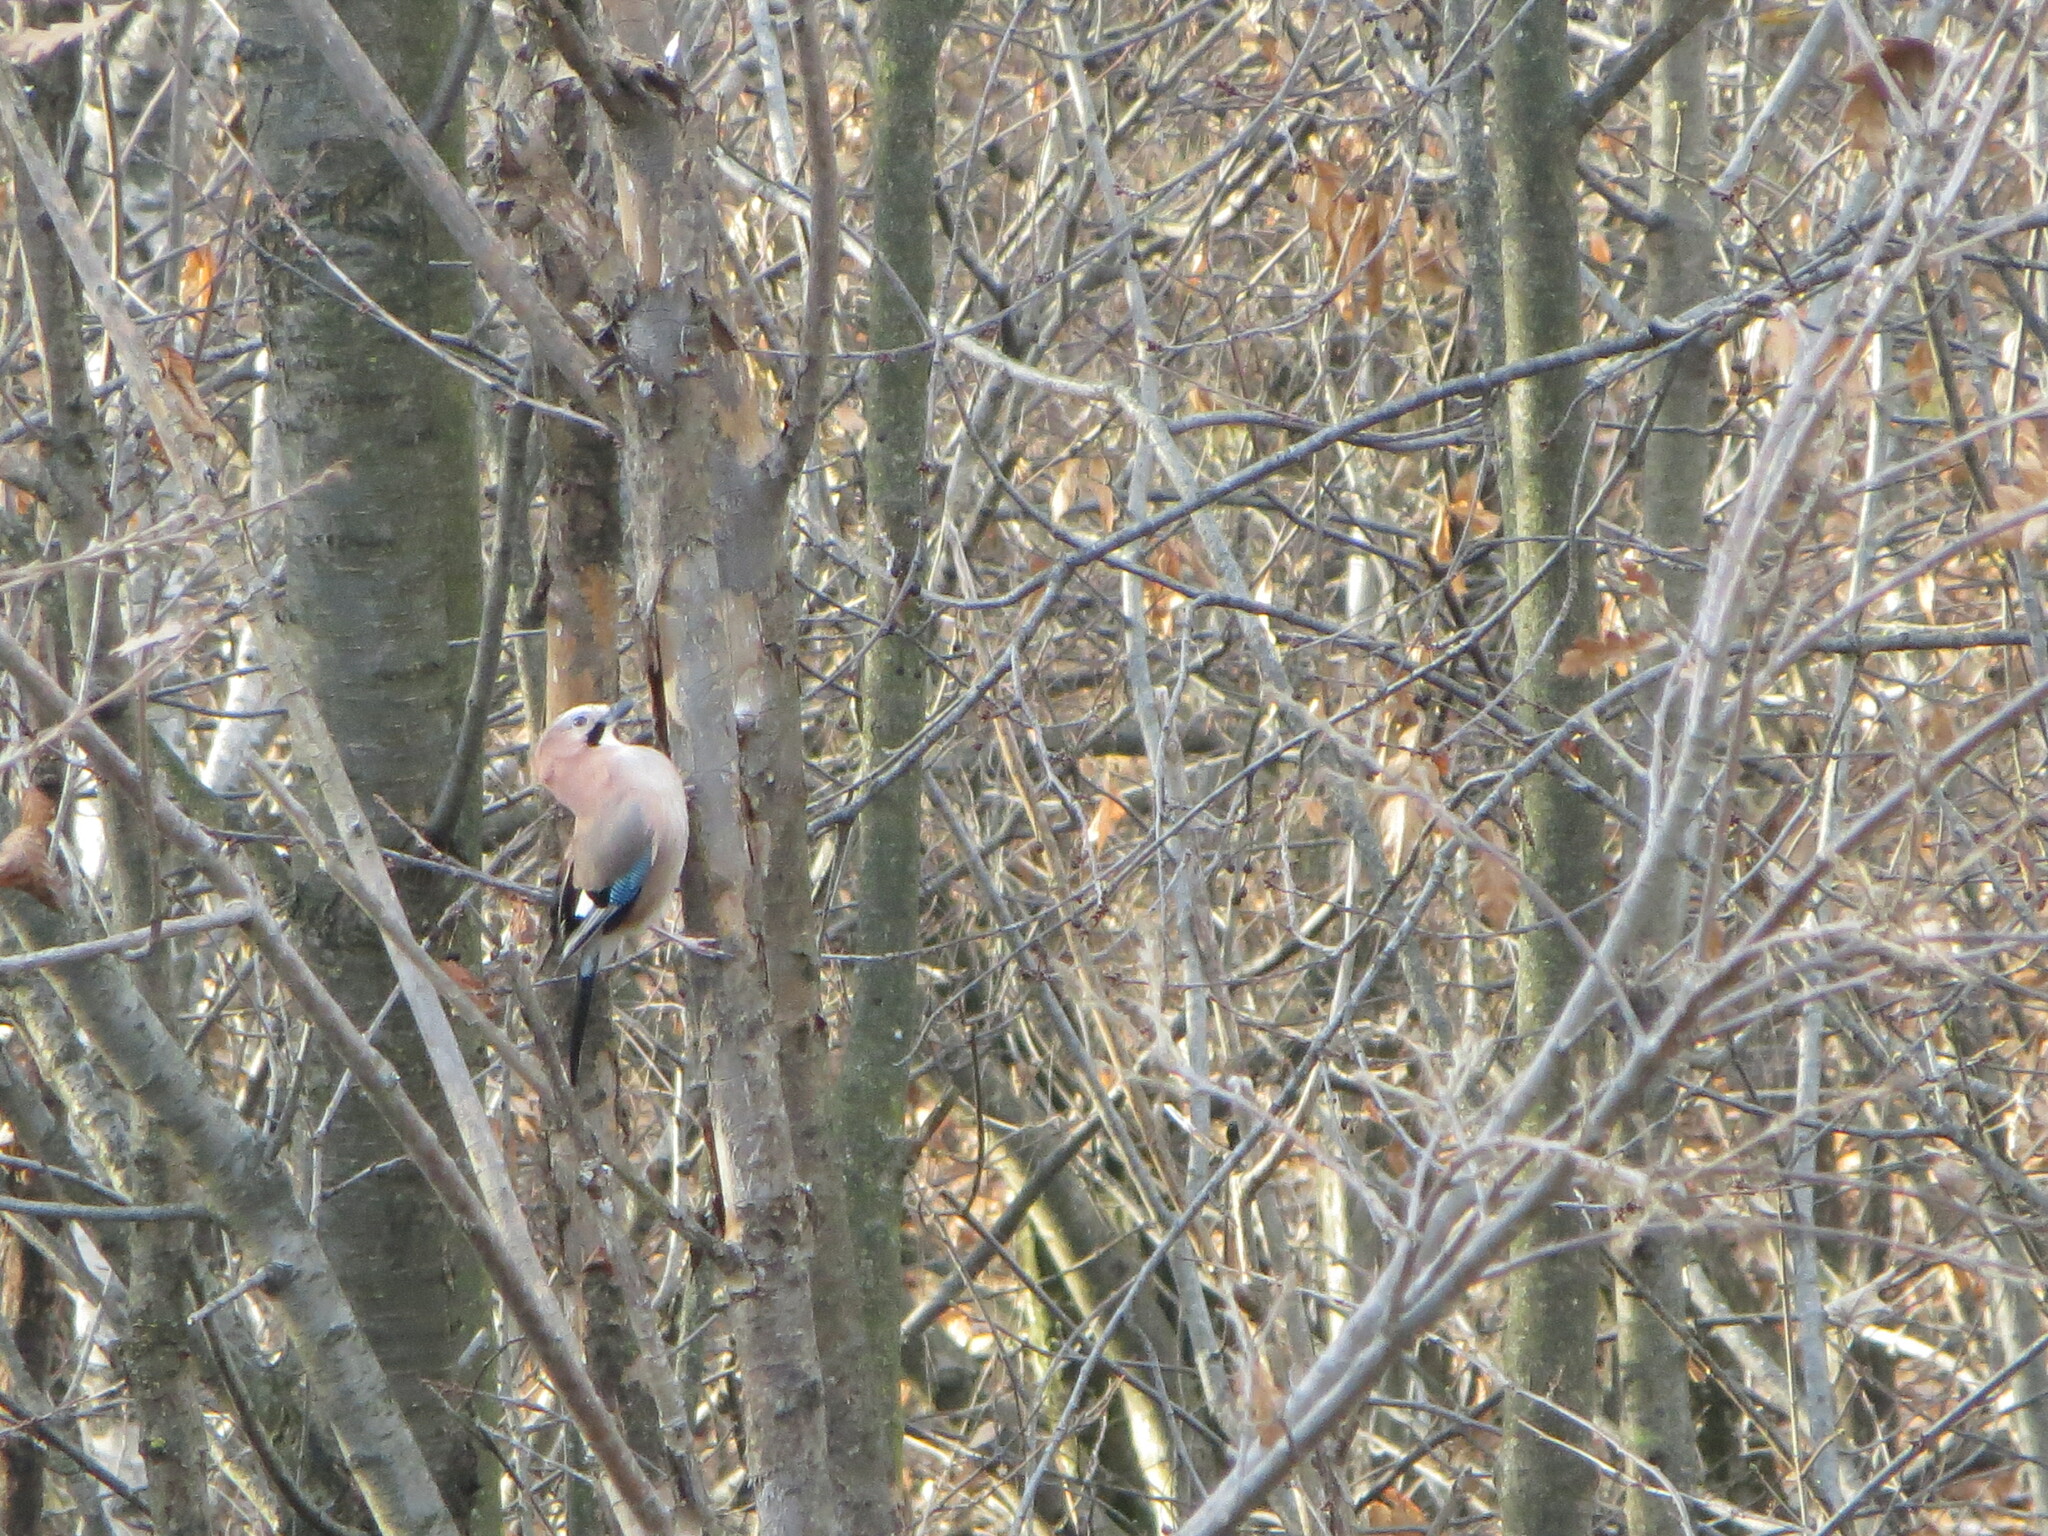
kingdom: Animalia
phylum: Chordata
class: Aves
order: Passeriformes
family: Corvidae
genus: Garrulus
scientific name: Garrulus glandarius
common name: Eurasian jay
